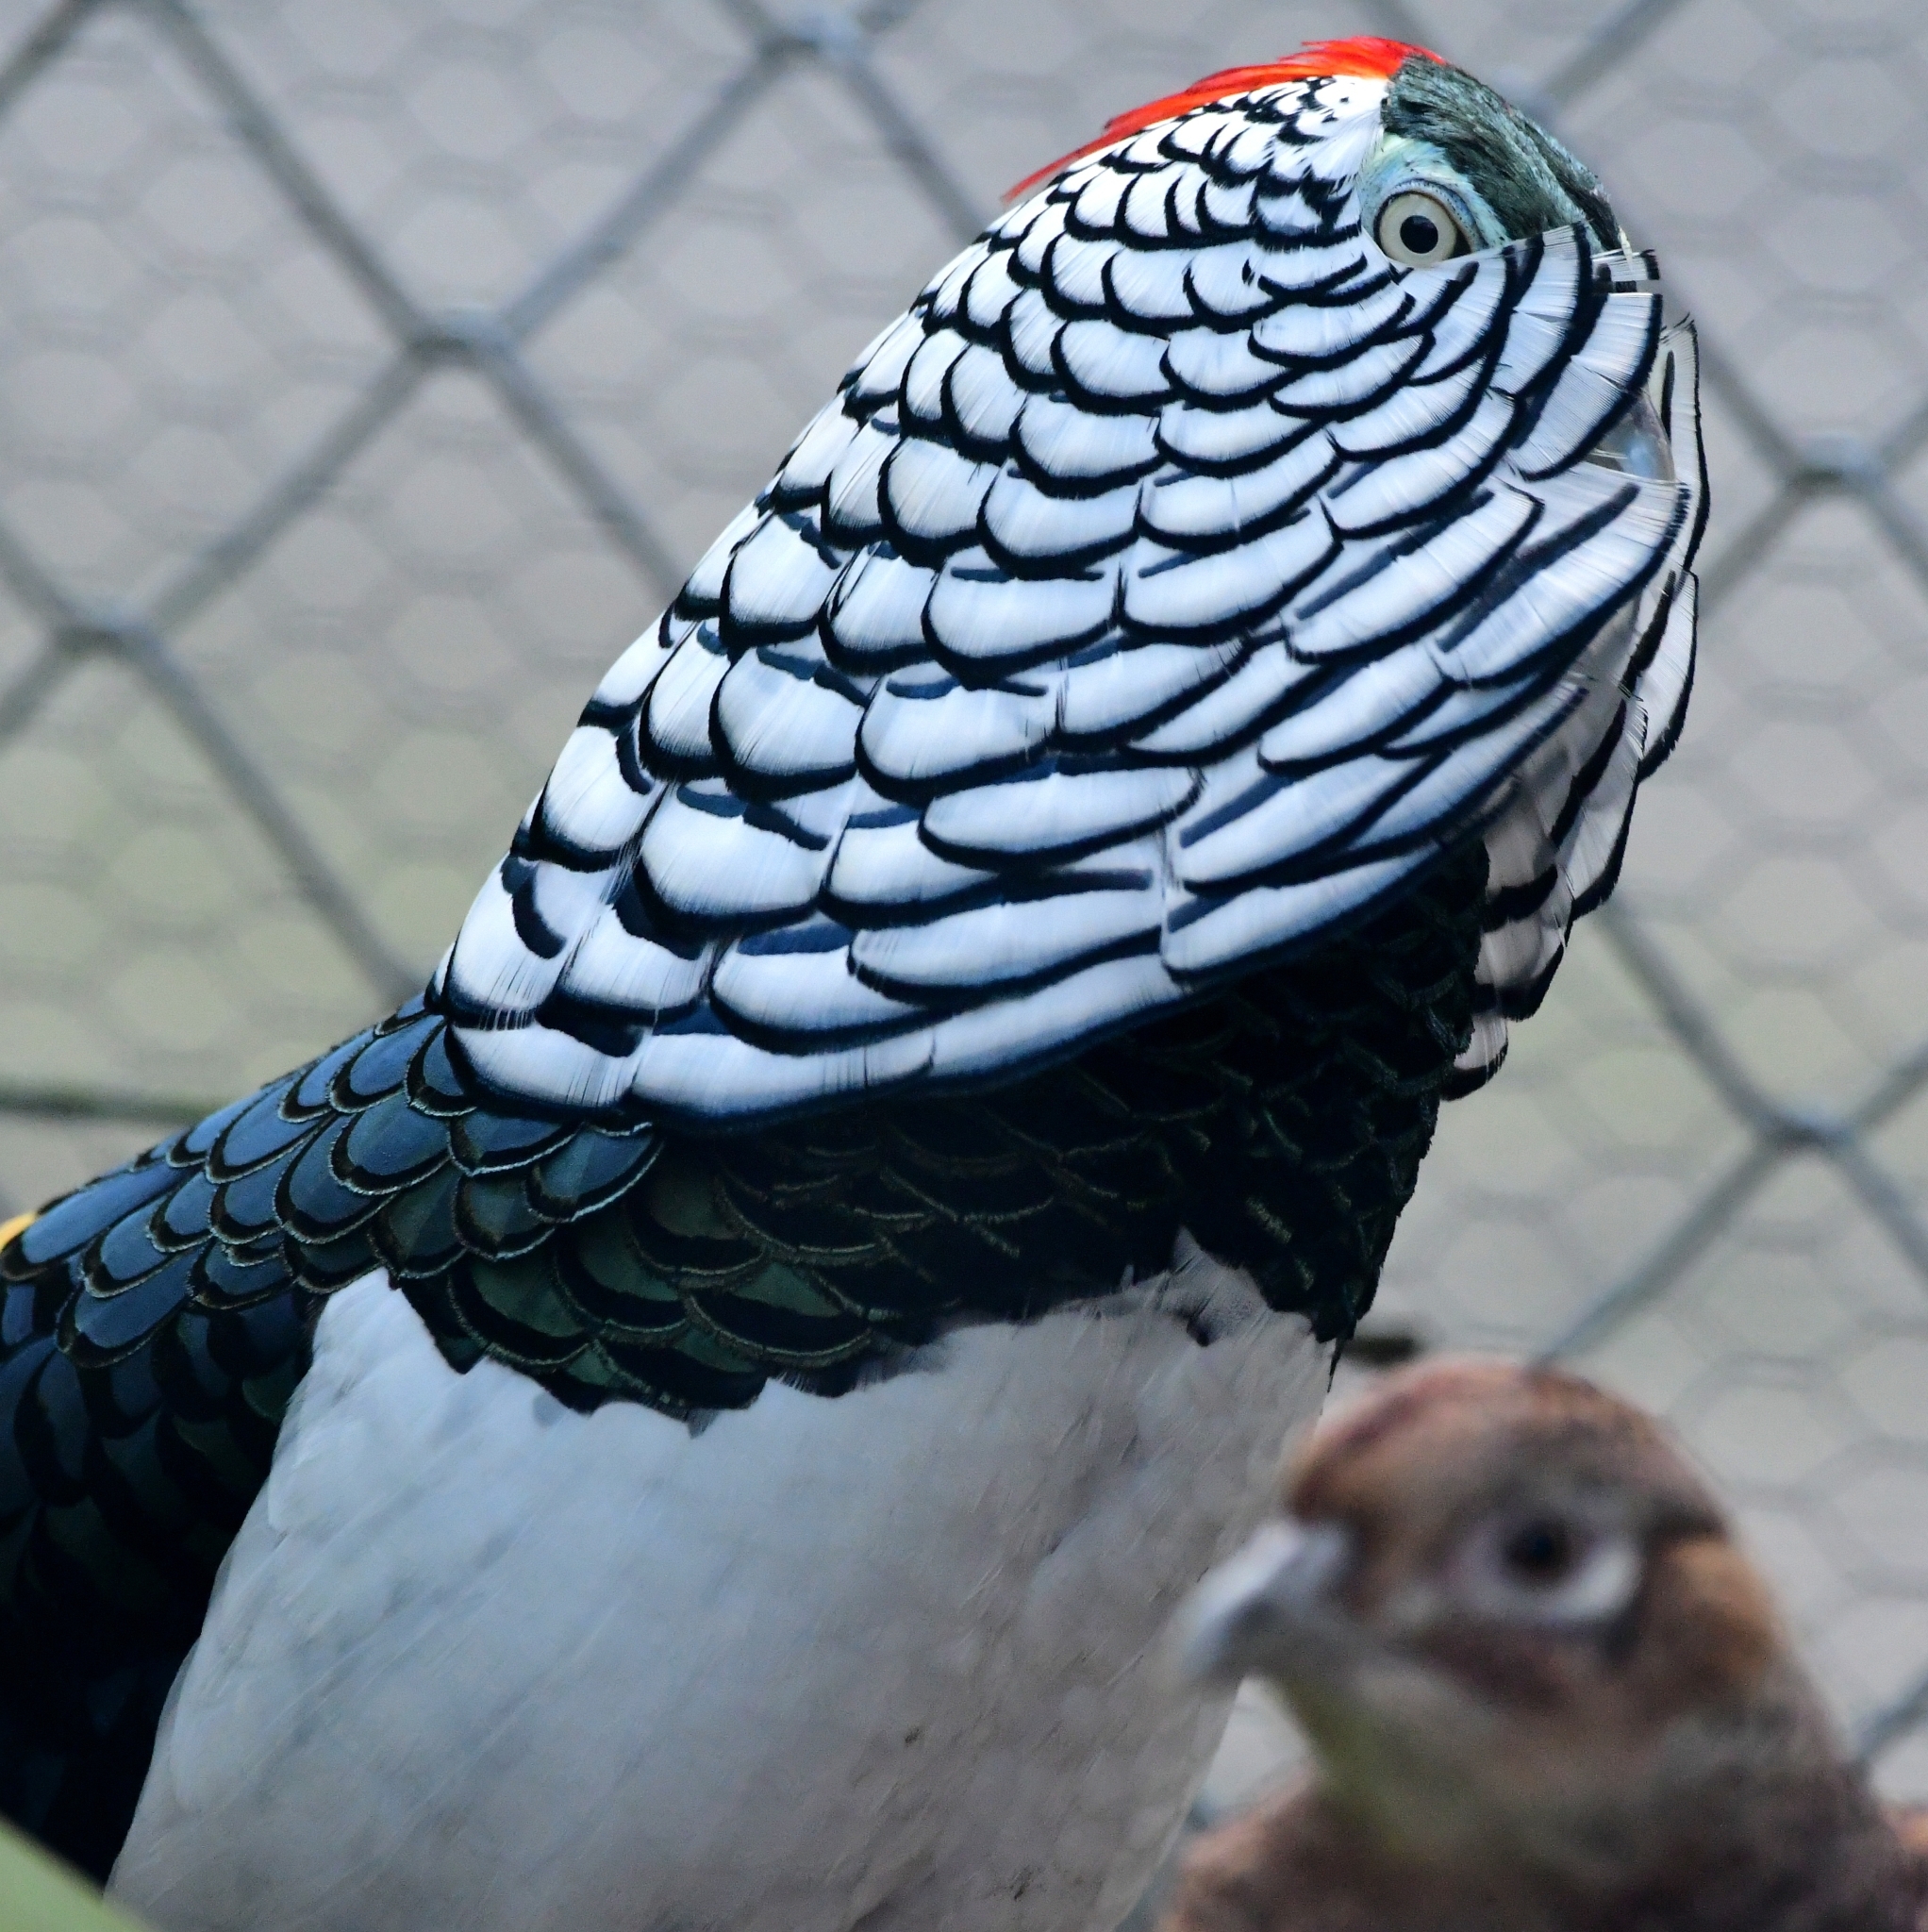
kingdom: Animalia
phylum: Chordata
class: Aves
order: Galliformes
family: Phasianidae
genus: Chrysolophus
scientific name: Chrysolophus amherstiae
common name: Lady amherst's pheasant
